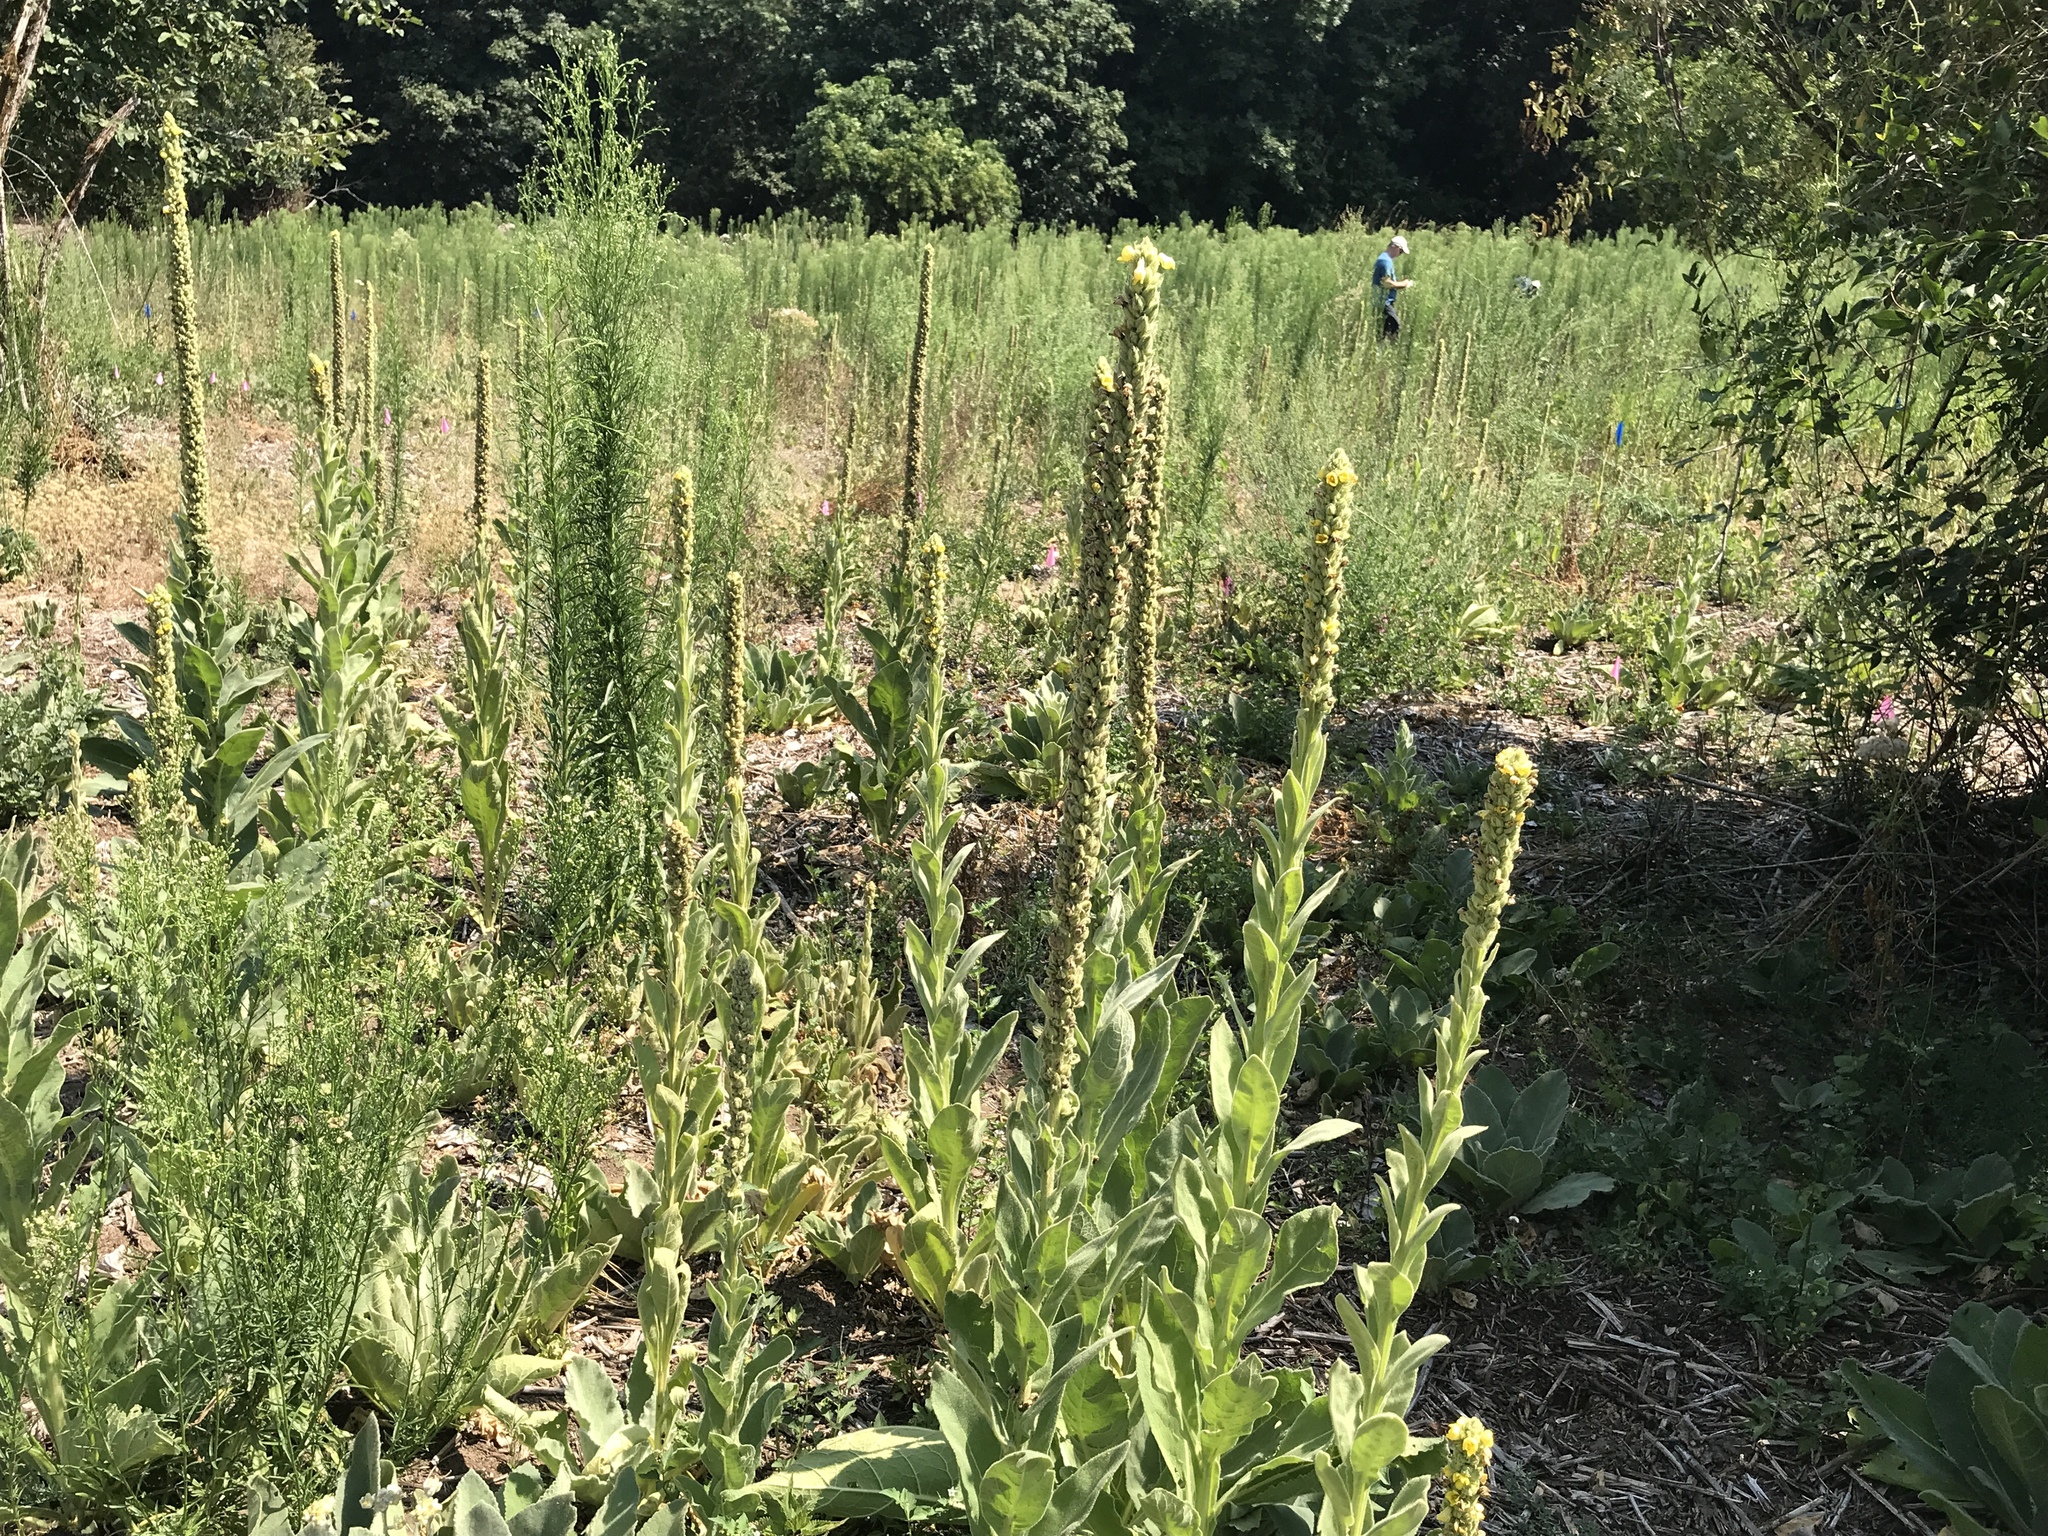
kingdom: Plantae
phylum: Tracheophyta
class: Magnoliopsida
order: Lamiales
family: Scrophulariaceae
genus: Verbascum
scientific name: Verbascum thapsus
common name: Common mullein
